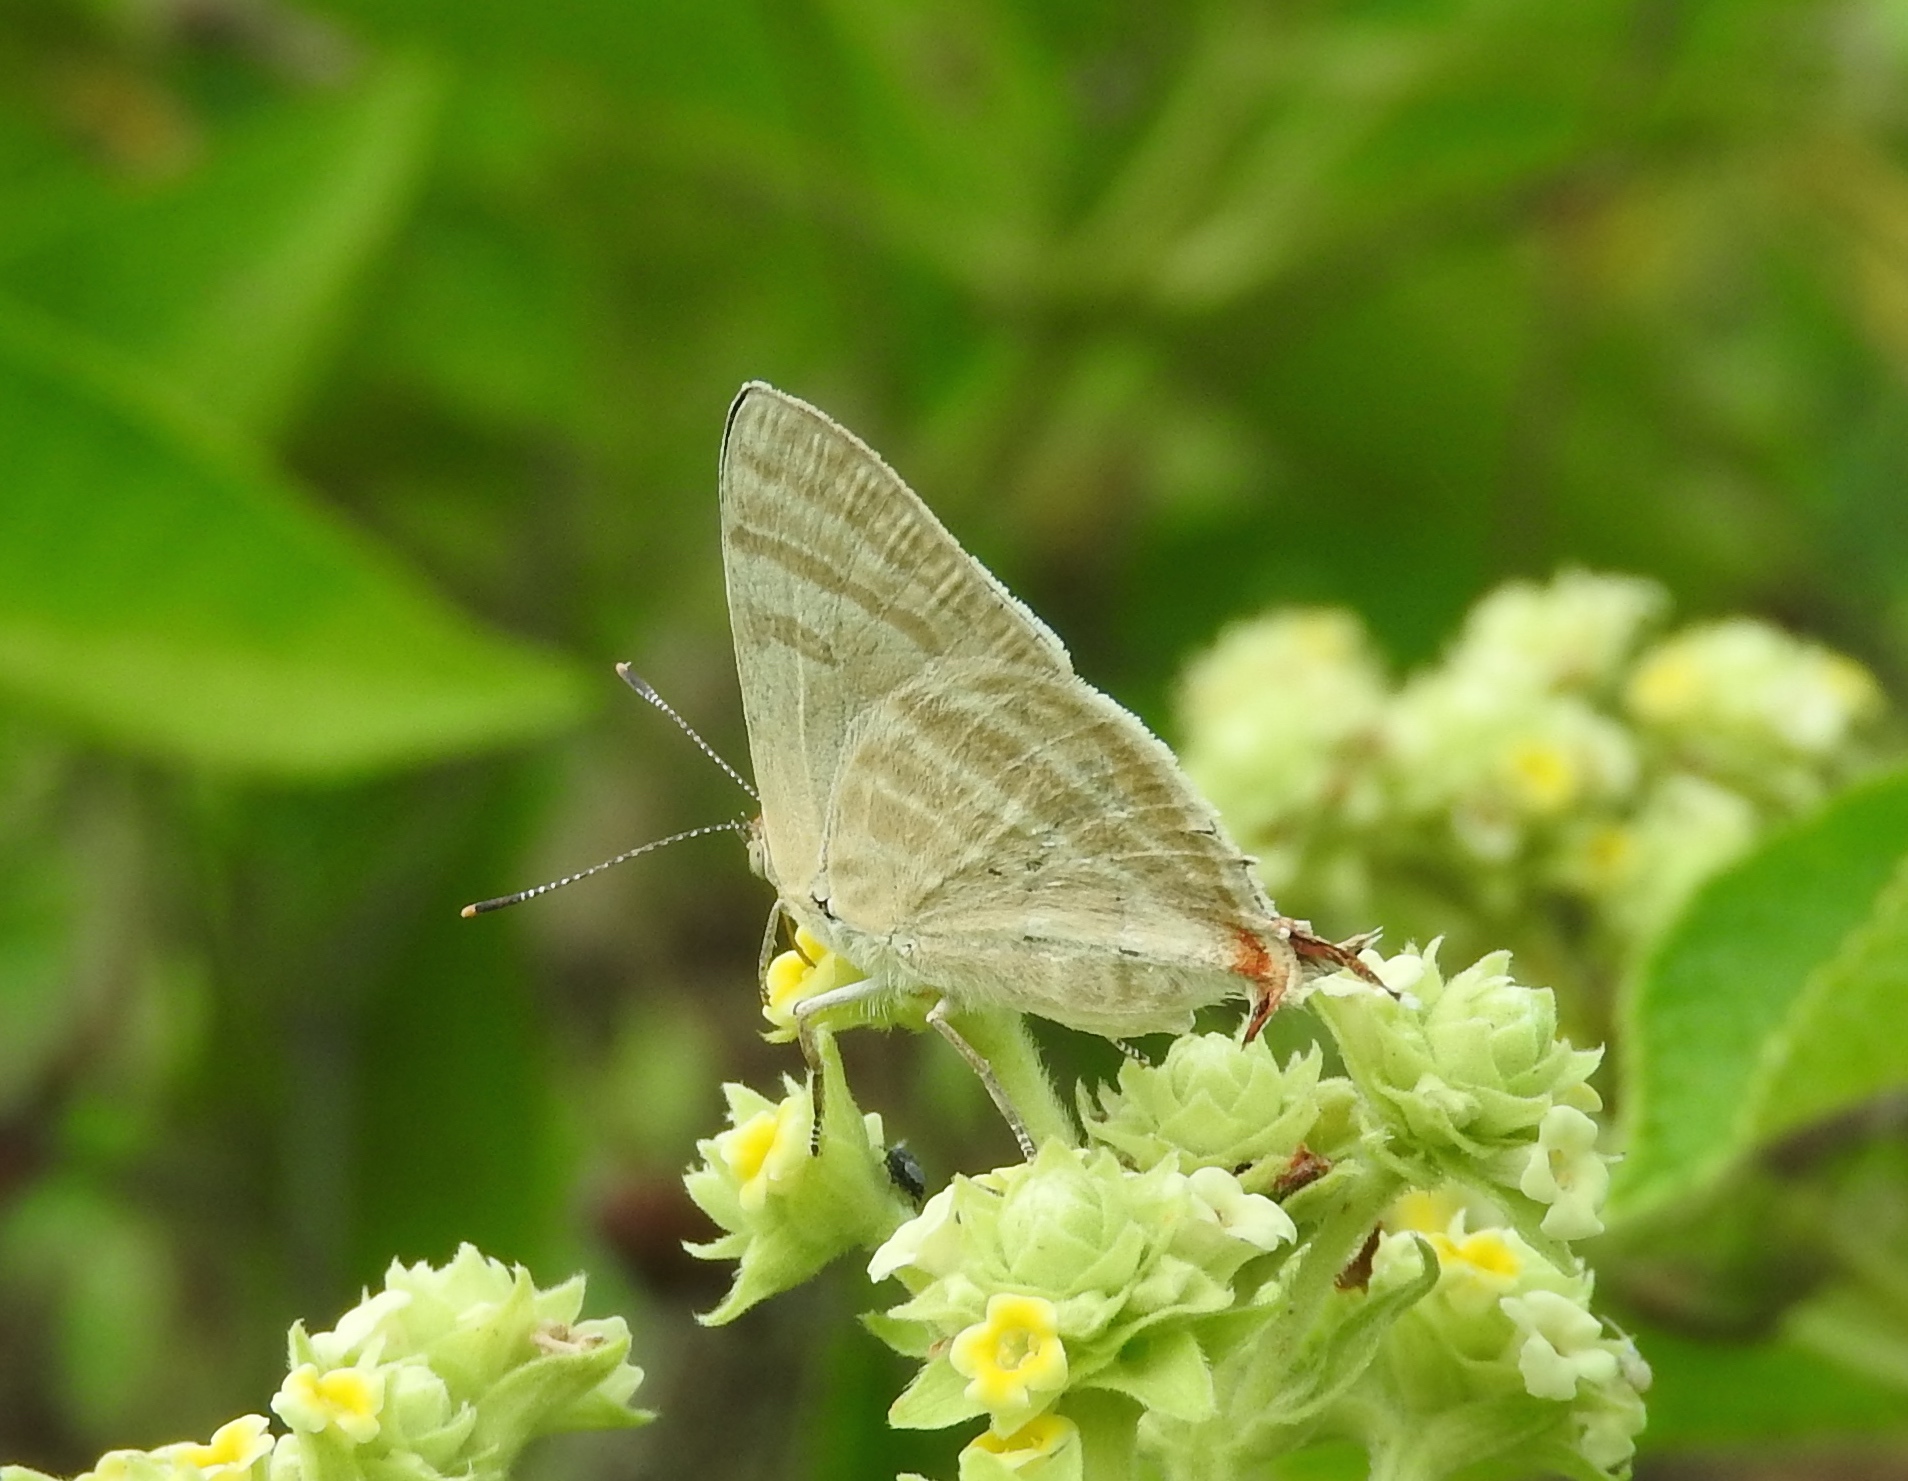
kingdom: Animalia
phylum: Arthropoda
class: Insecta
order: Lepidoptera
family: Lycaenidae
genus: Dolymorpha
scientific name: Dolymorpha jada
